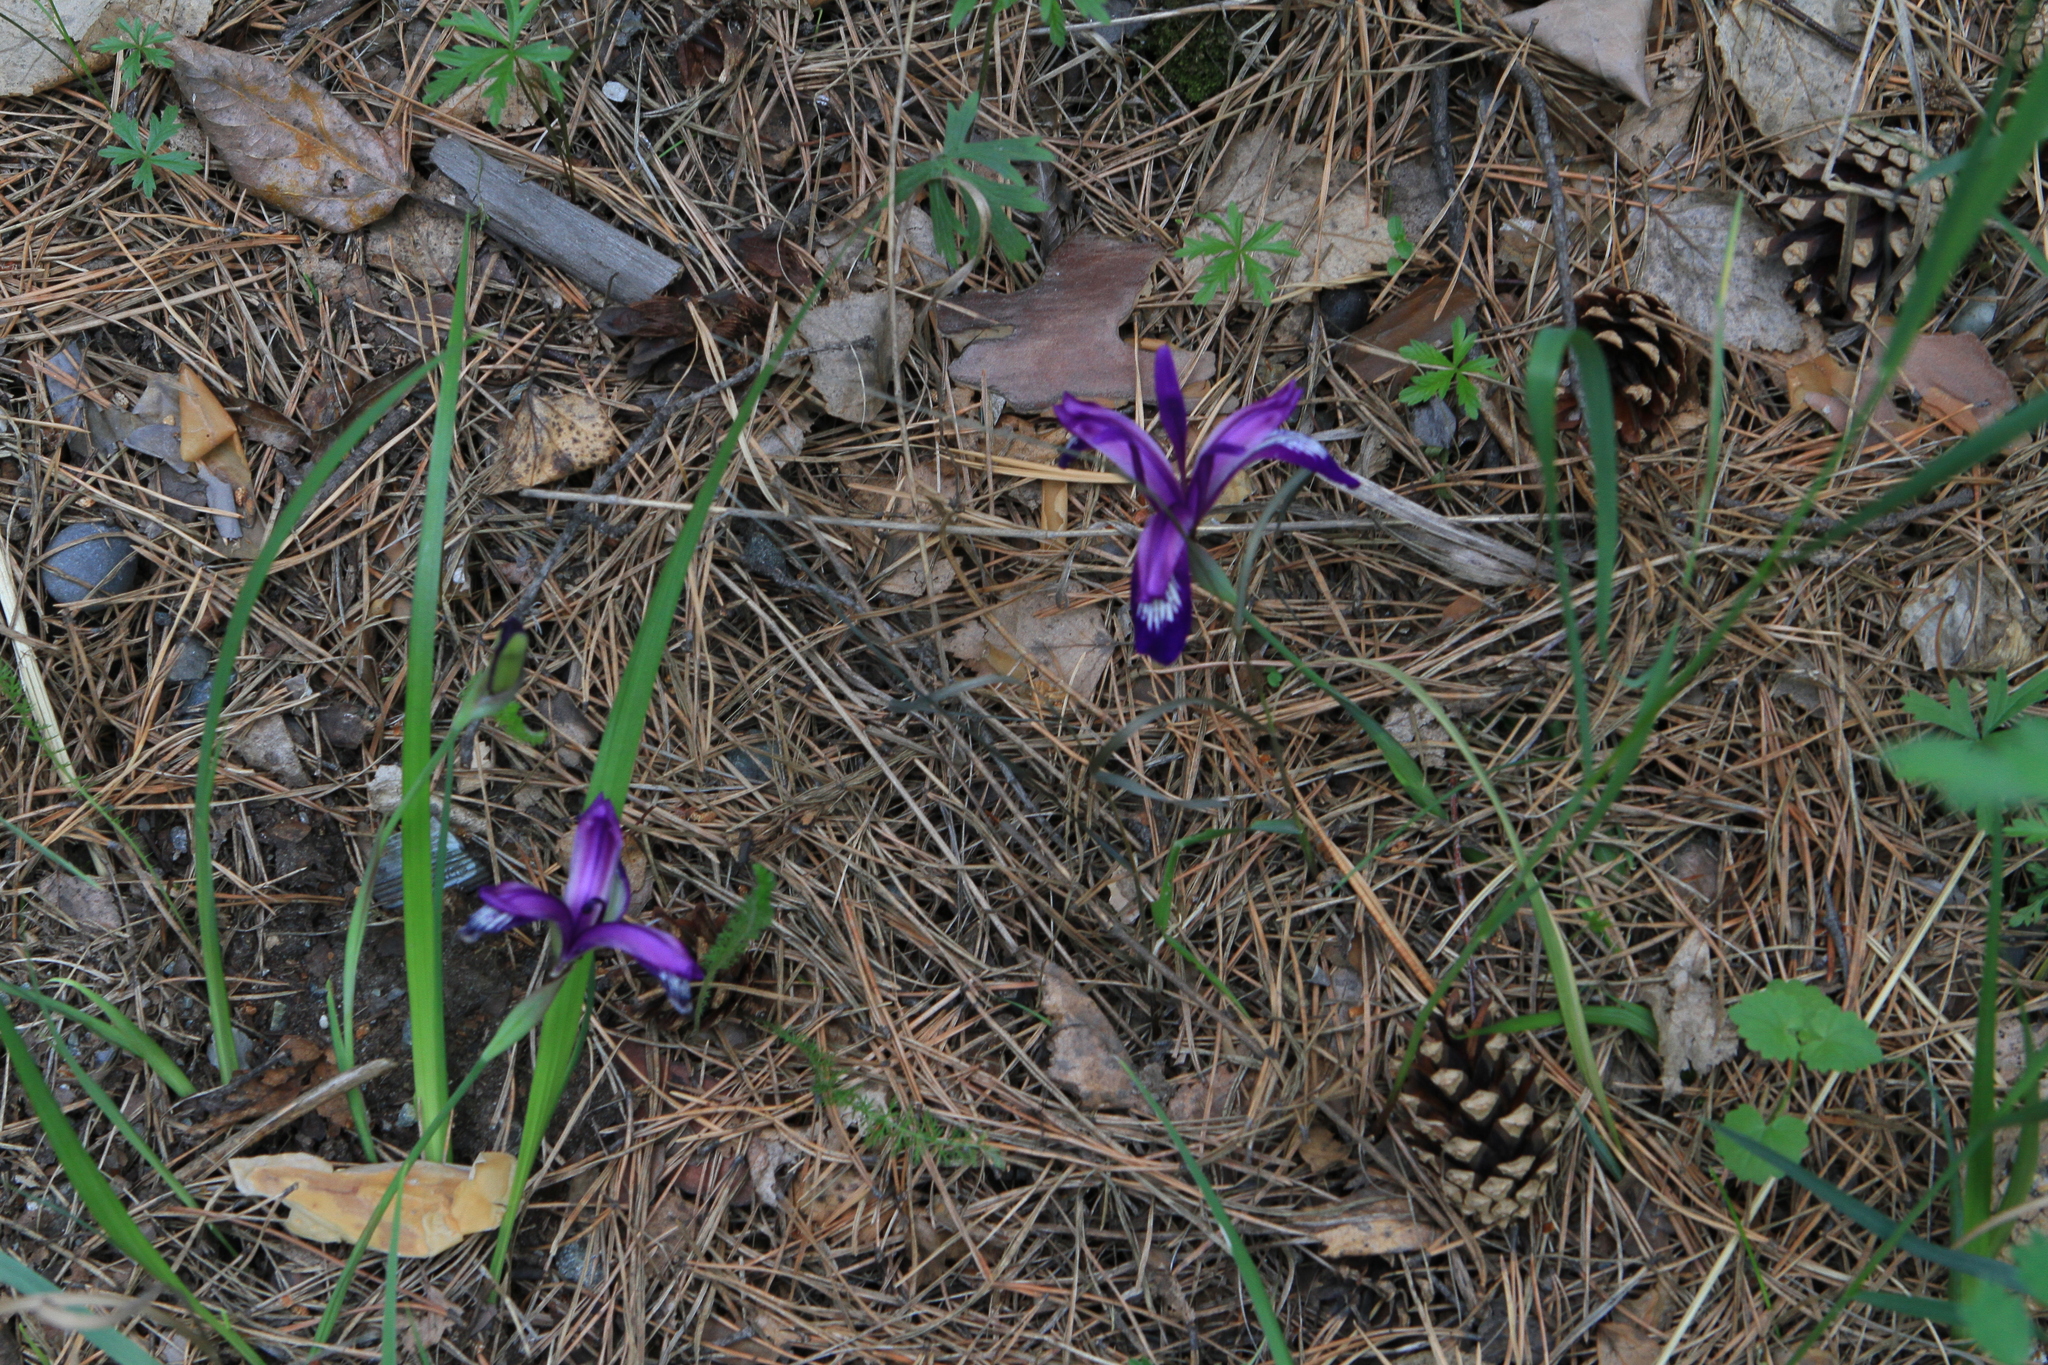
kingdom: Plantae
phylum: Tracheophyta
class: Liliopsida
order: Asparagales
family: Iridaceae
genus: Iris
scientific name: Iris ruthenica
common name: Purple-bract iris
